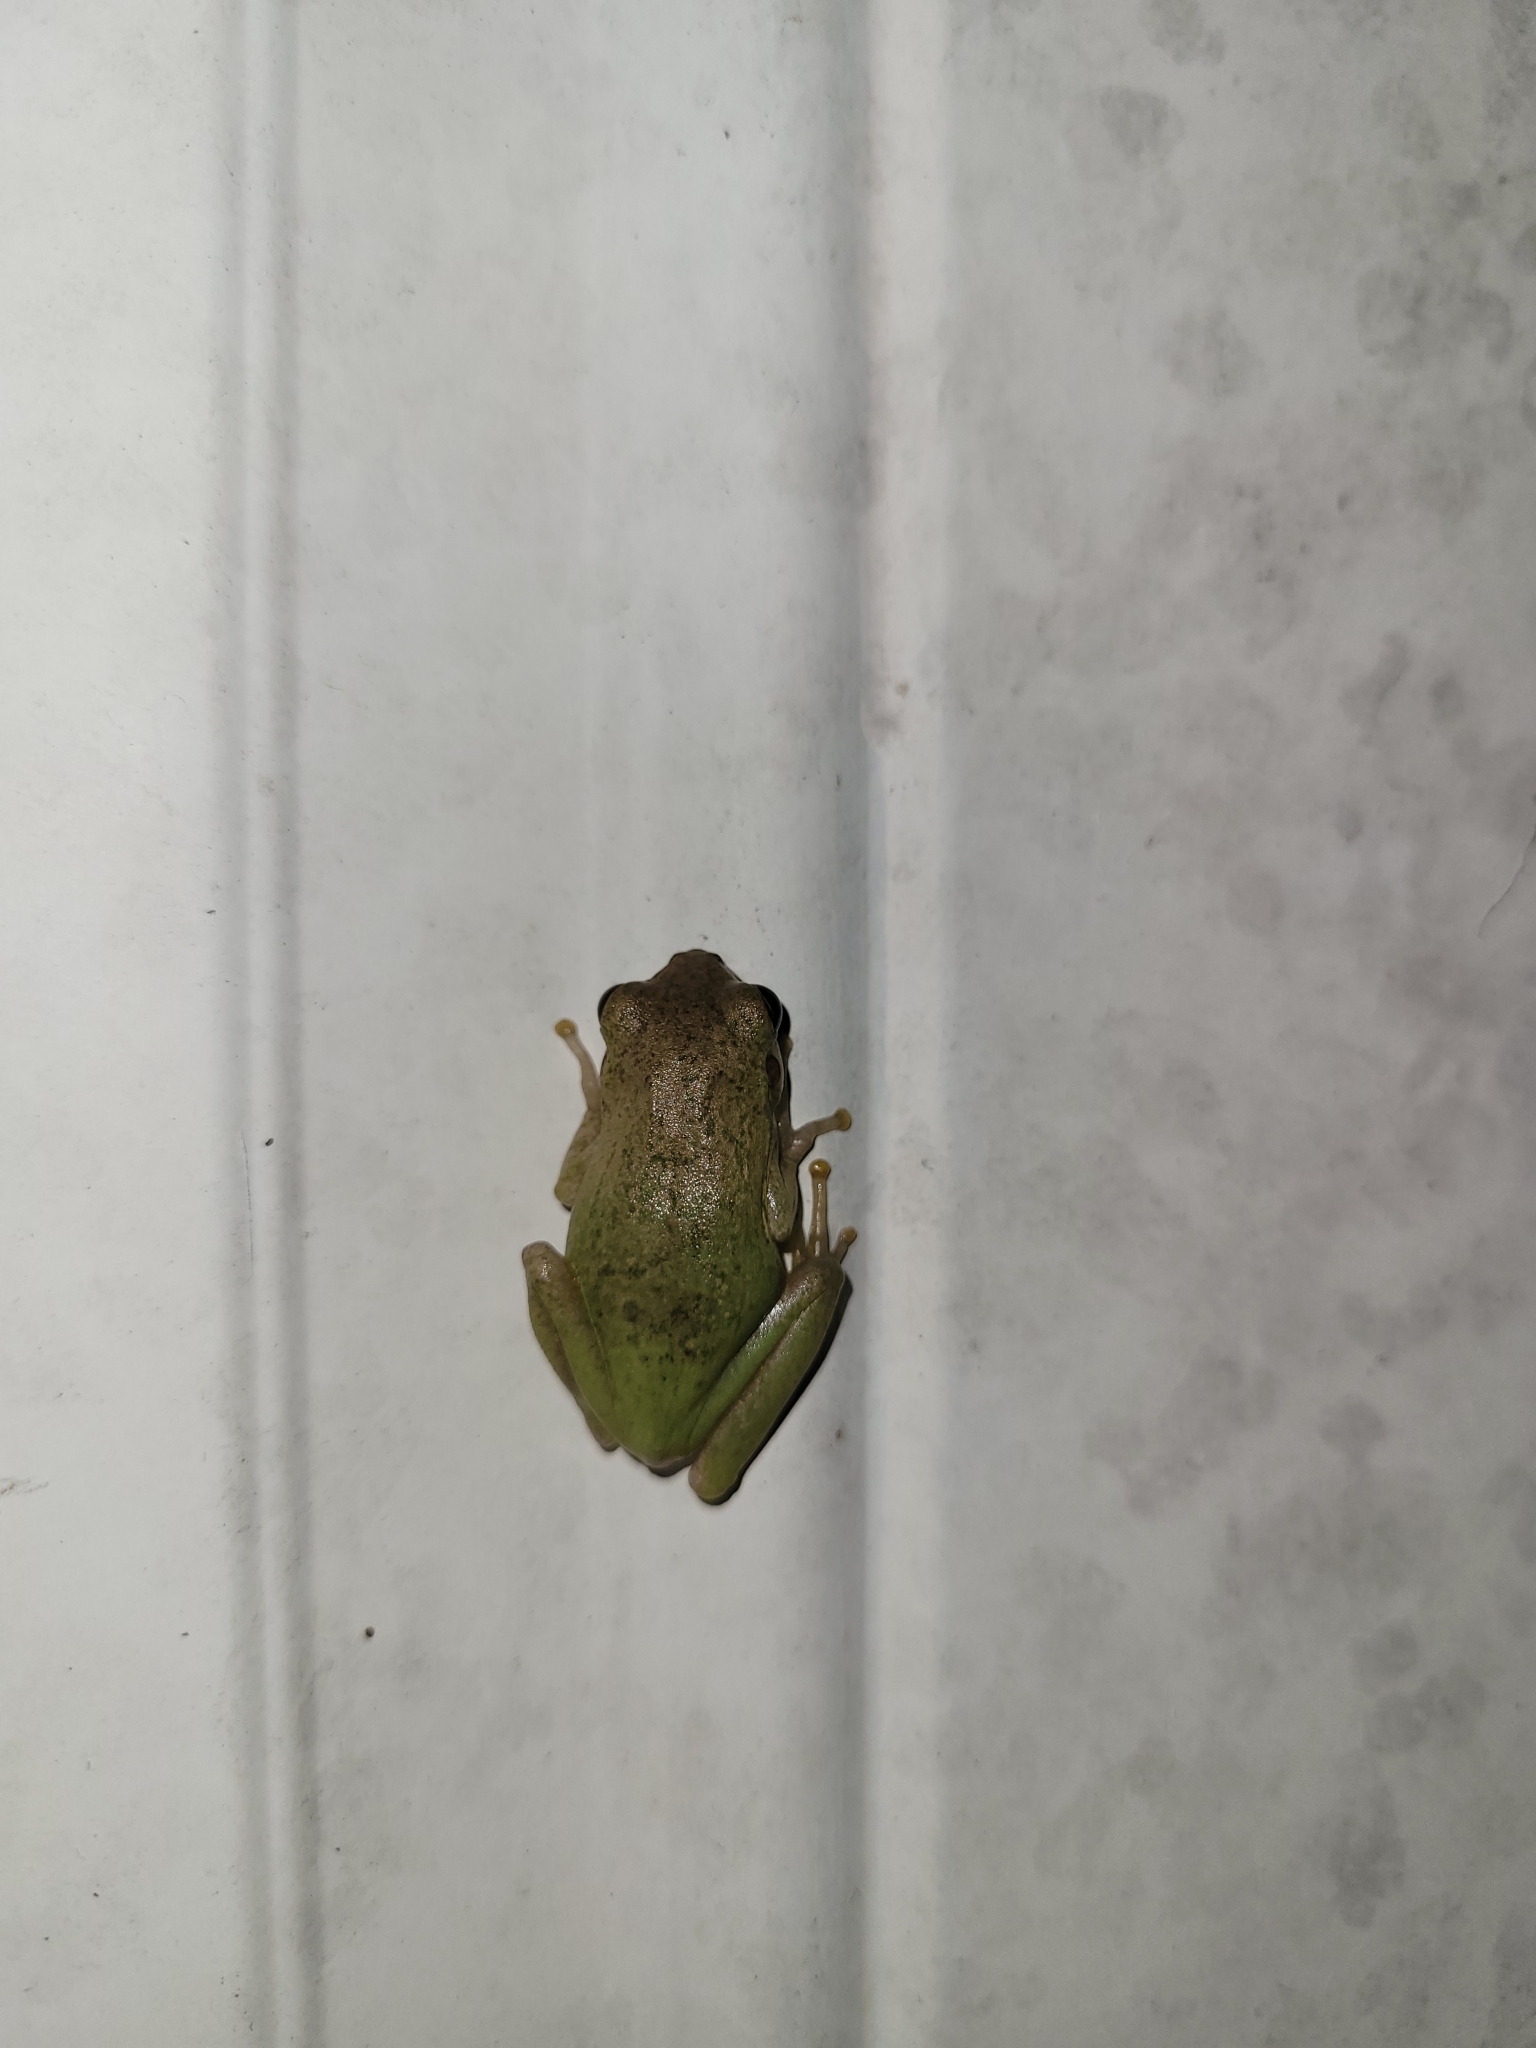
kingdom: Animalia
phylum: Chordata
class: Amphibia
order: Anura
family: Hylidae
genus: Dryophytes
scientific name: Dryophytes squirellus
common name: Squirrel treefrog
